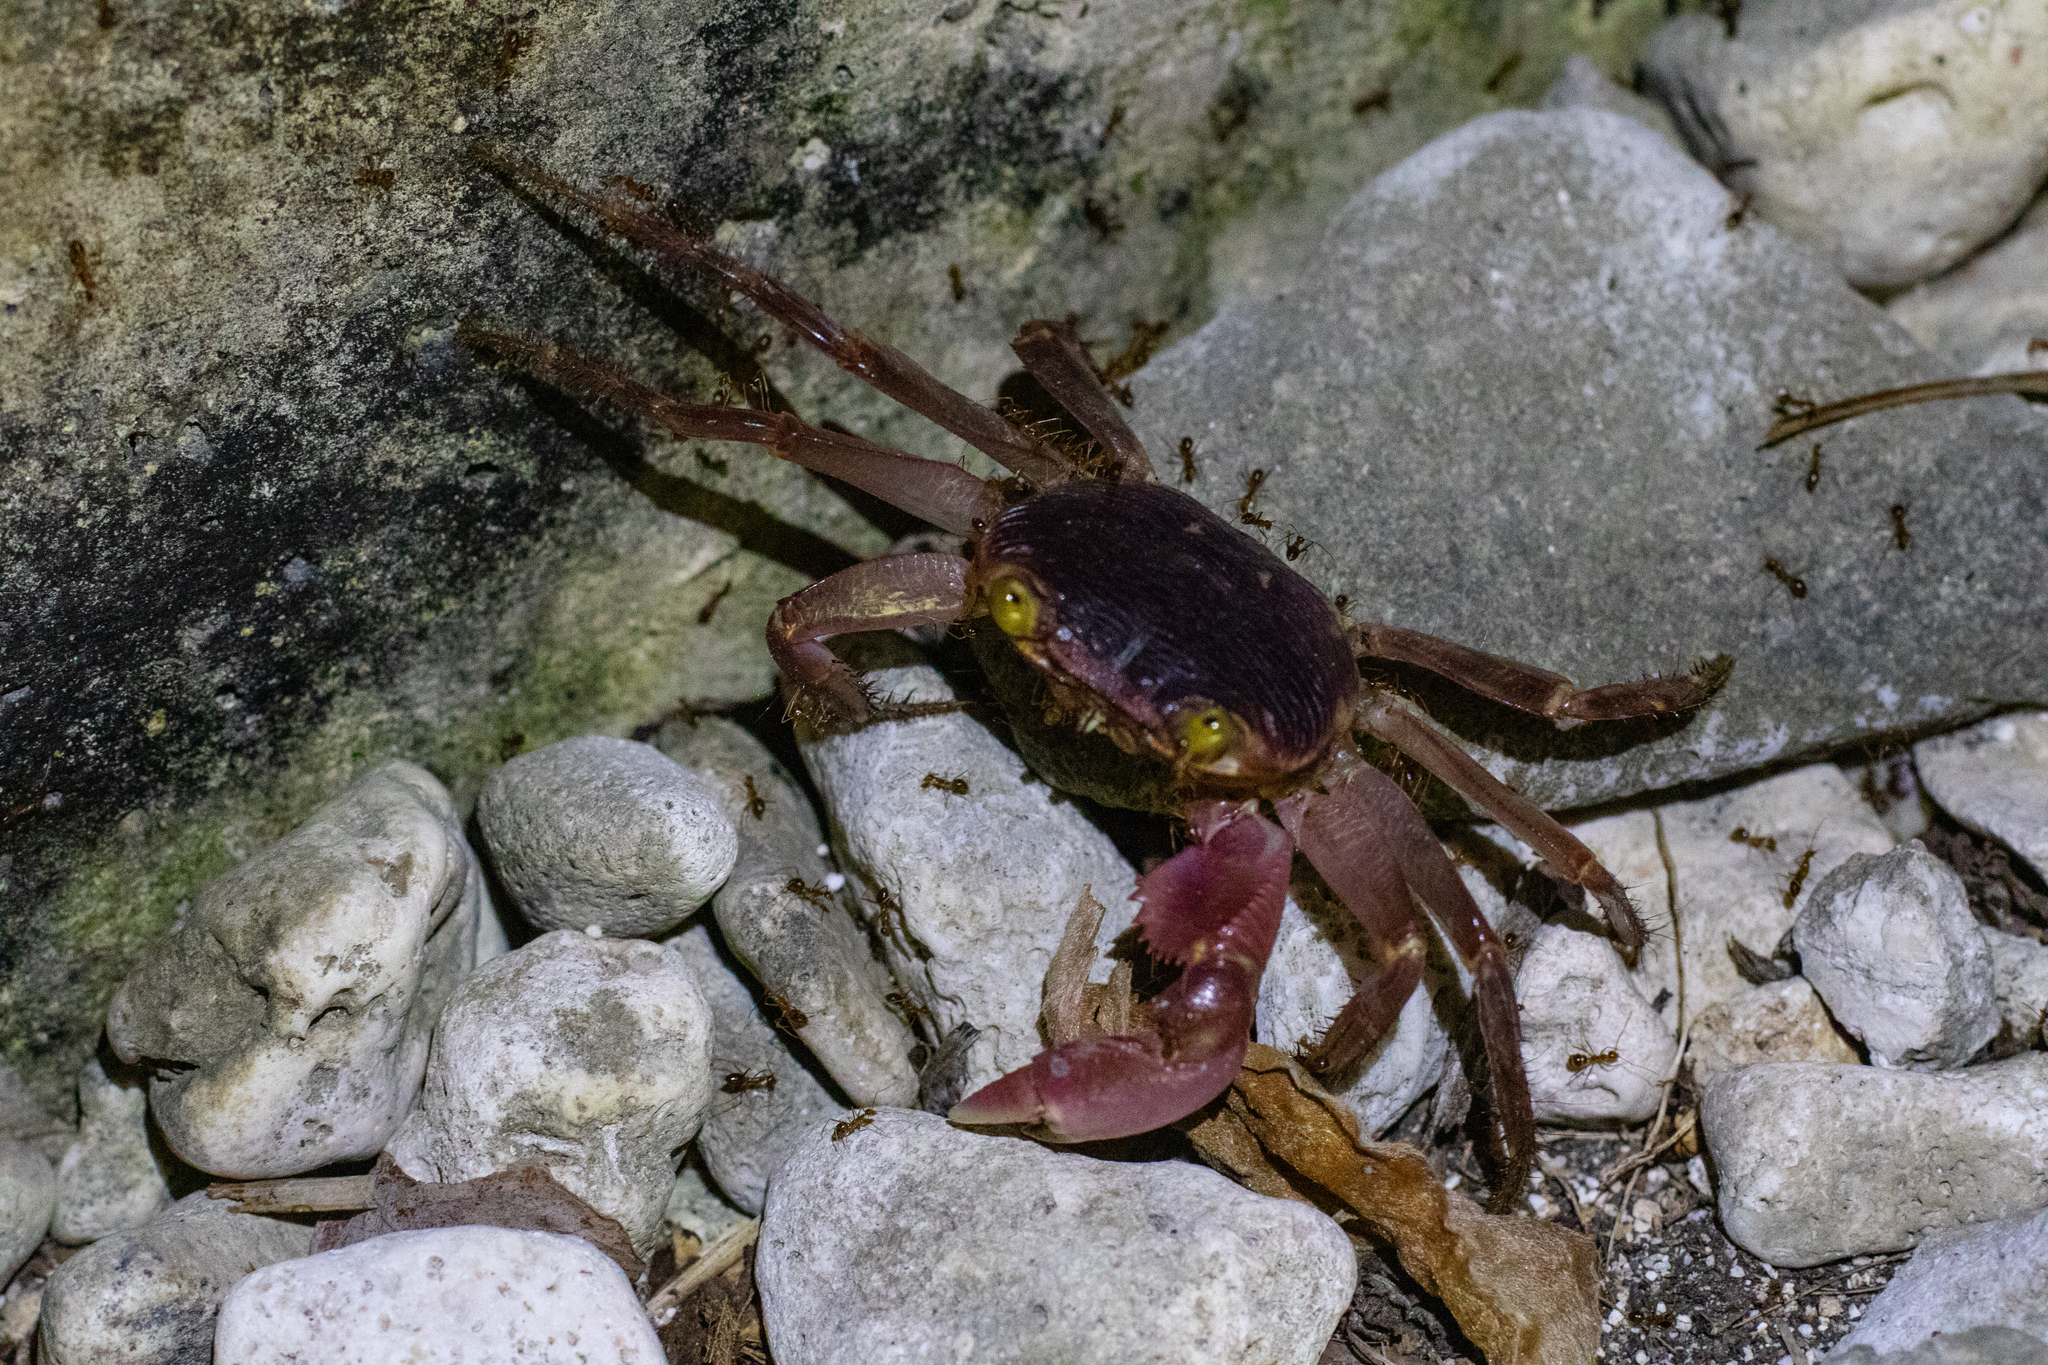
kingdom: Animalia
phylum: Arthropoda
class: Malacostraca
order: Decapoda
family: Grapsidae
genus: Geograpsus
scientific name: Geograpsus grayi
